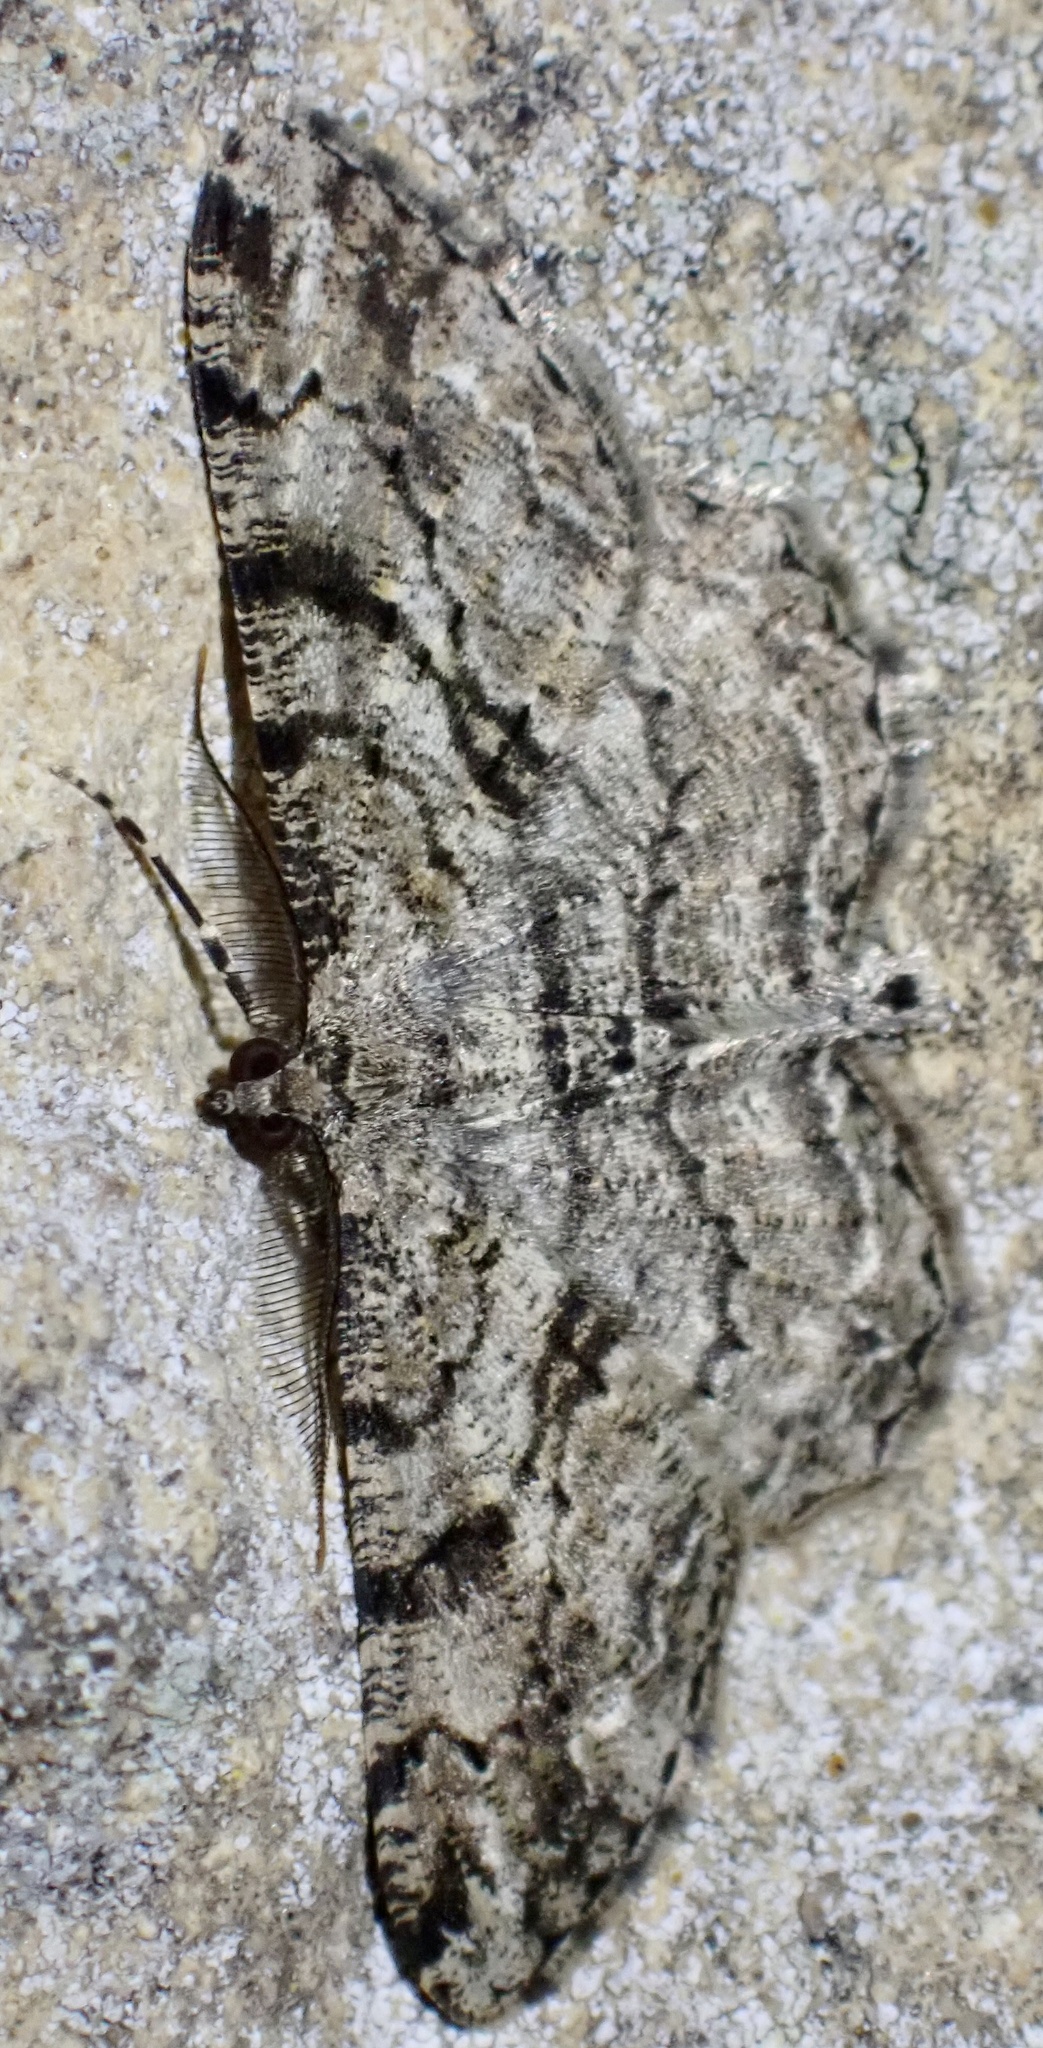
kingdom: Animalia
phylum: Arthropoda
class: Insecta
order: Lepidoptera
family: Geometridae
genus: Peribatodes
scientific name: Peribatodes rhomboidaria
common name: Willow beauty
